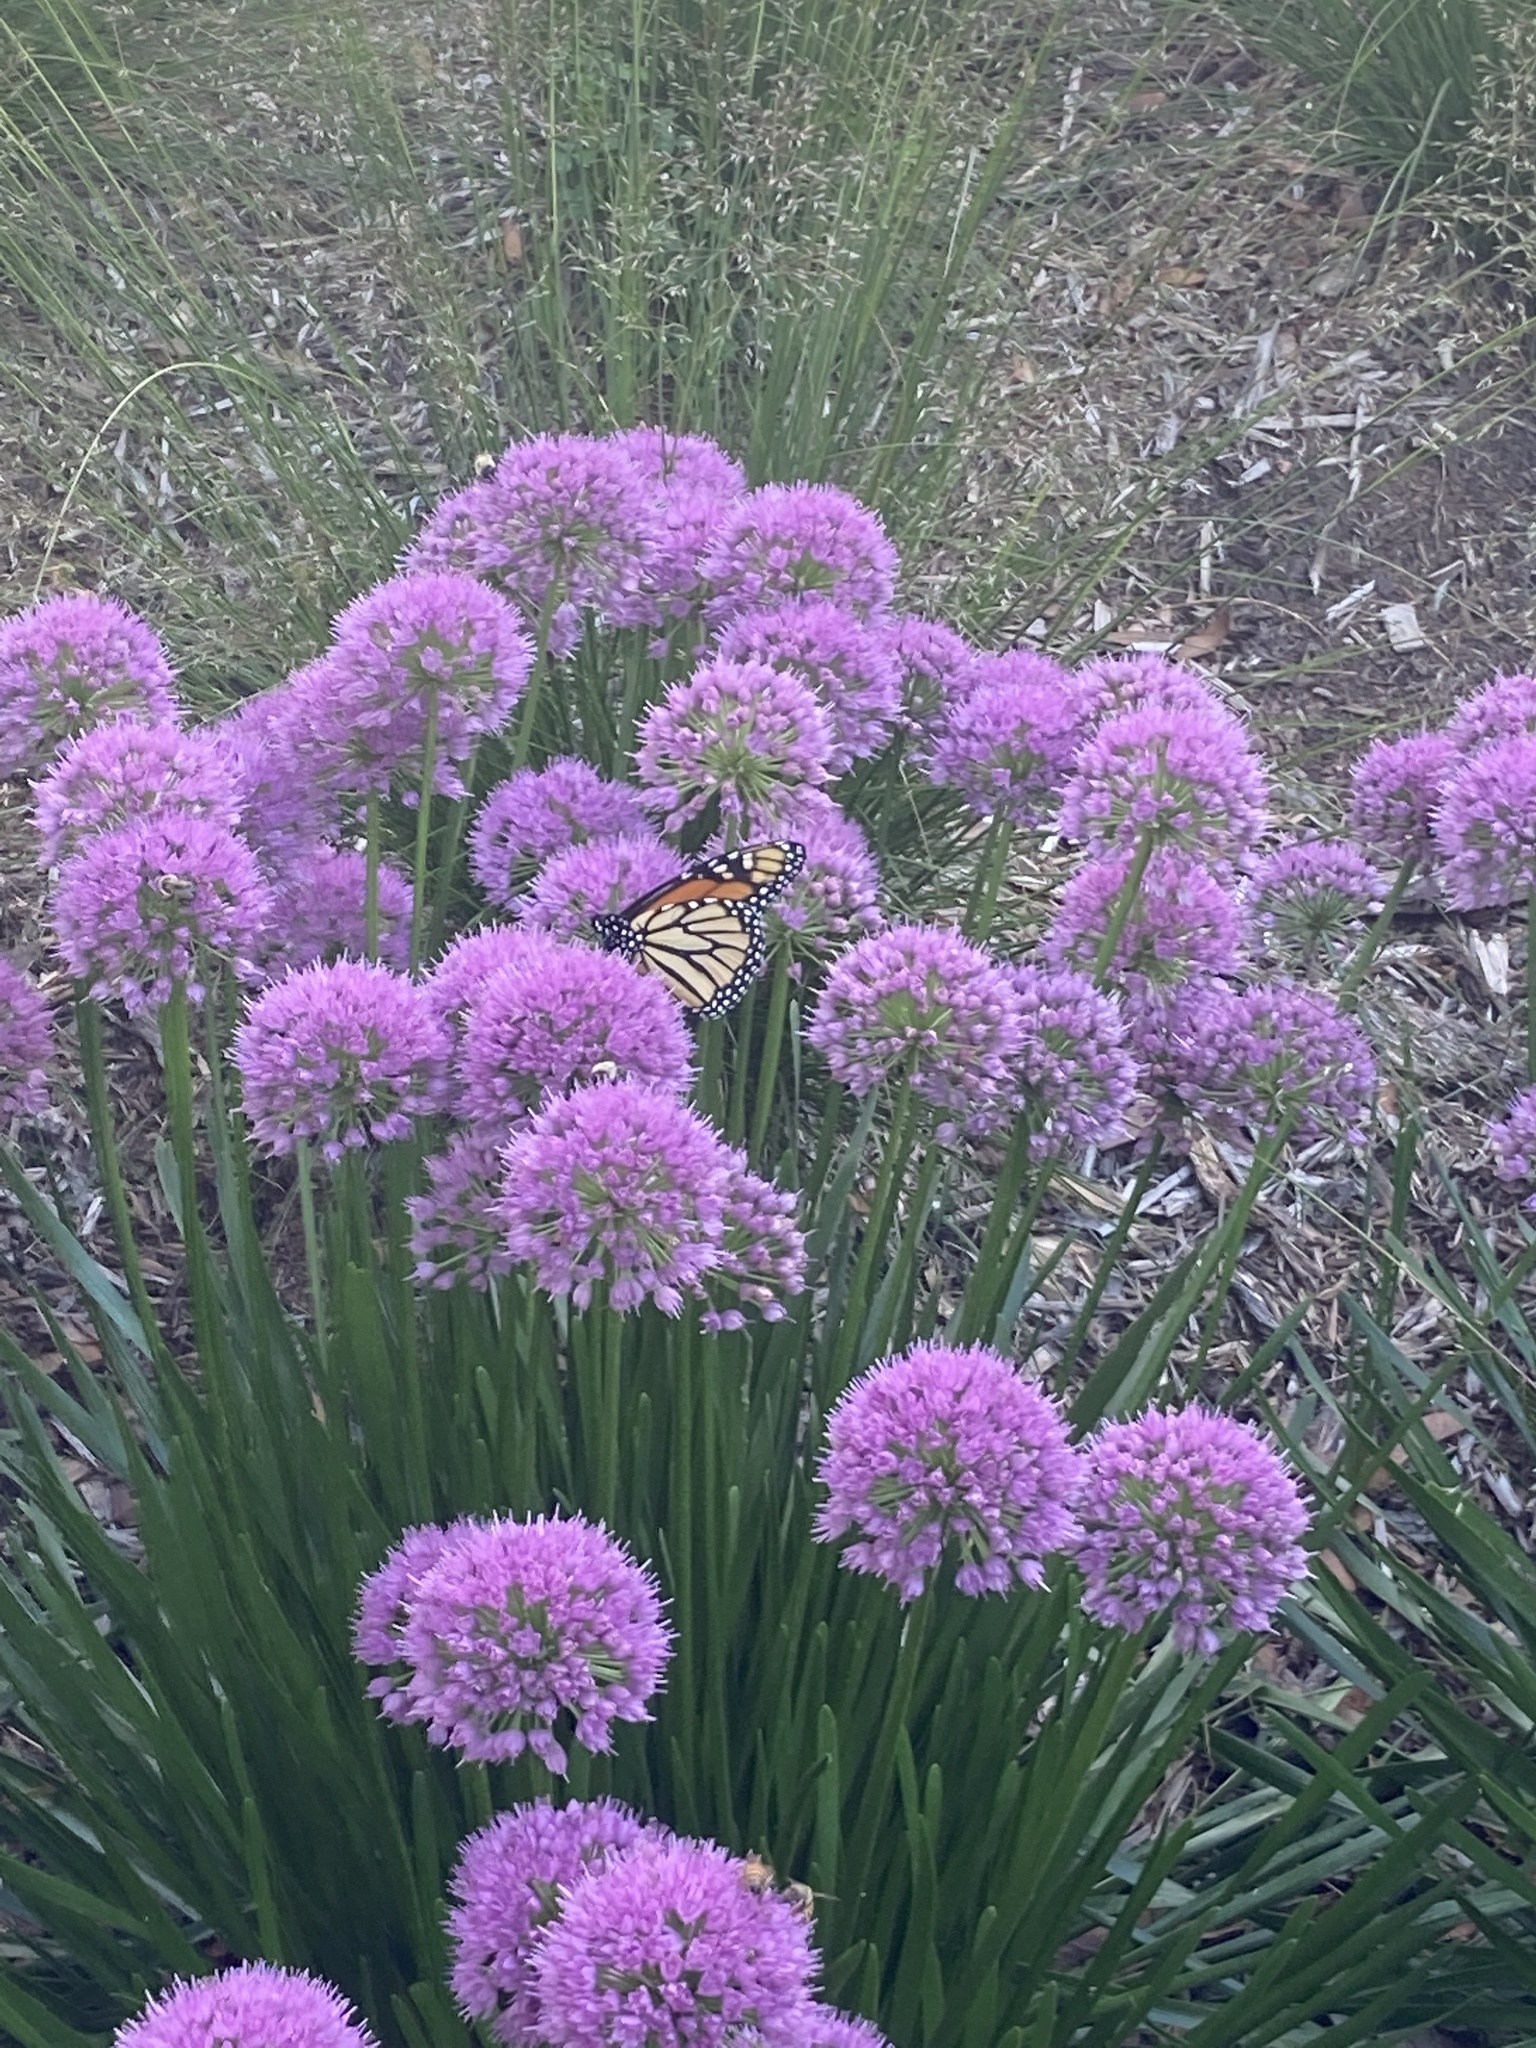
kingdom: Animalia
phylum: Arthropoda
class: Insecta
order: Lepidoptera
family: Nymphalidae
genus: Danaus
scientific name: Danaus plexippus
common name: Monarch
